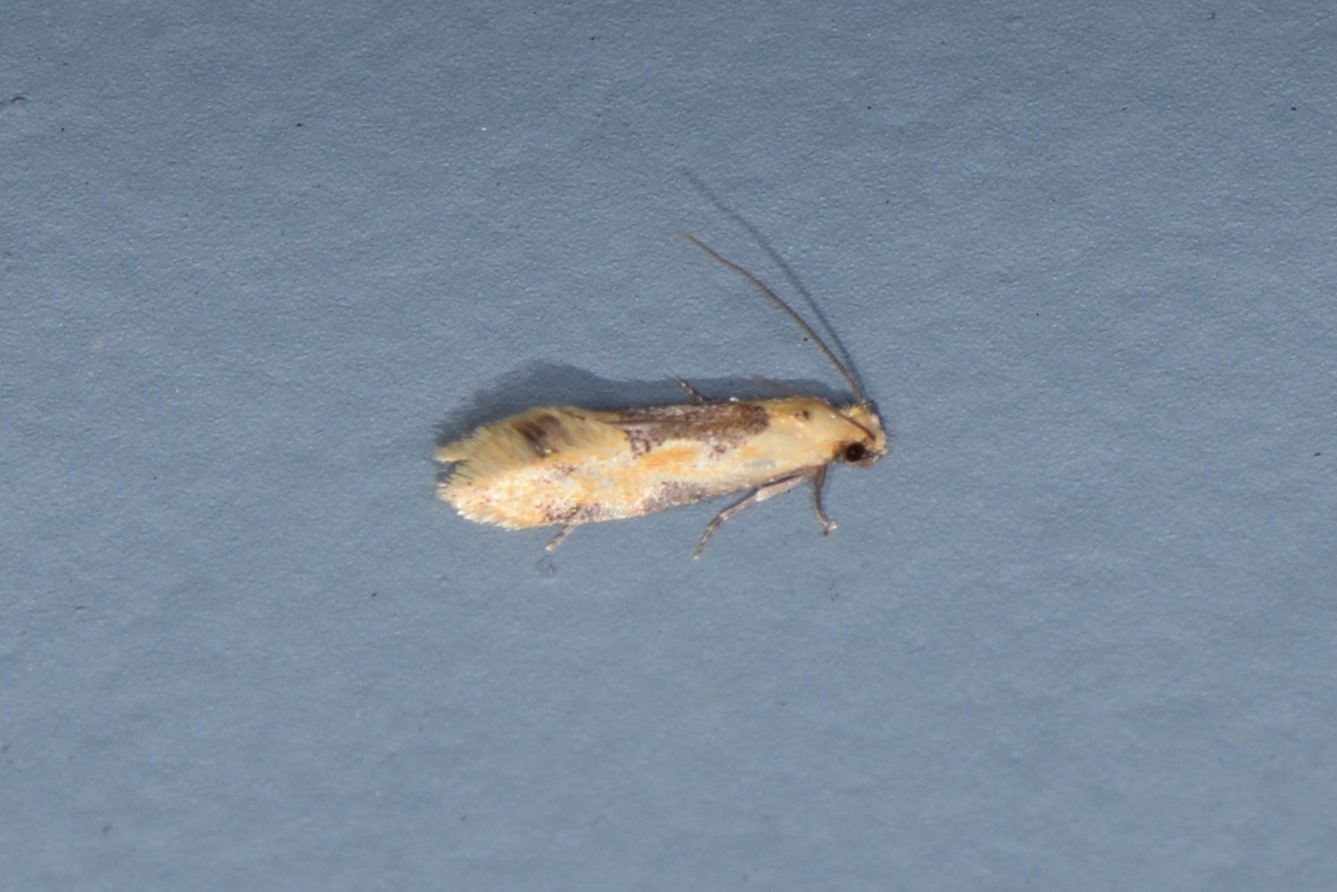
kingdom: Animalia
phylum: Arthropoda
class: Insecta
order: Lepidoptera
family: Meessiidae
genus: Hybroma
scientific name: Hybroma servulella
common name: Yellow wave moth
